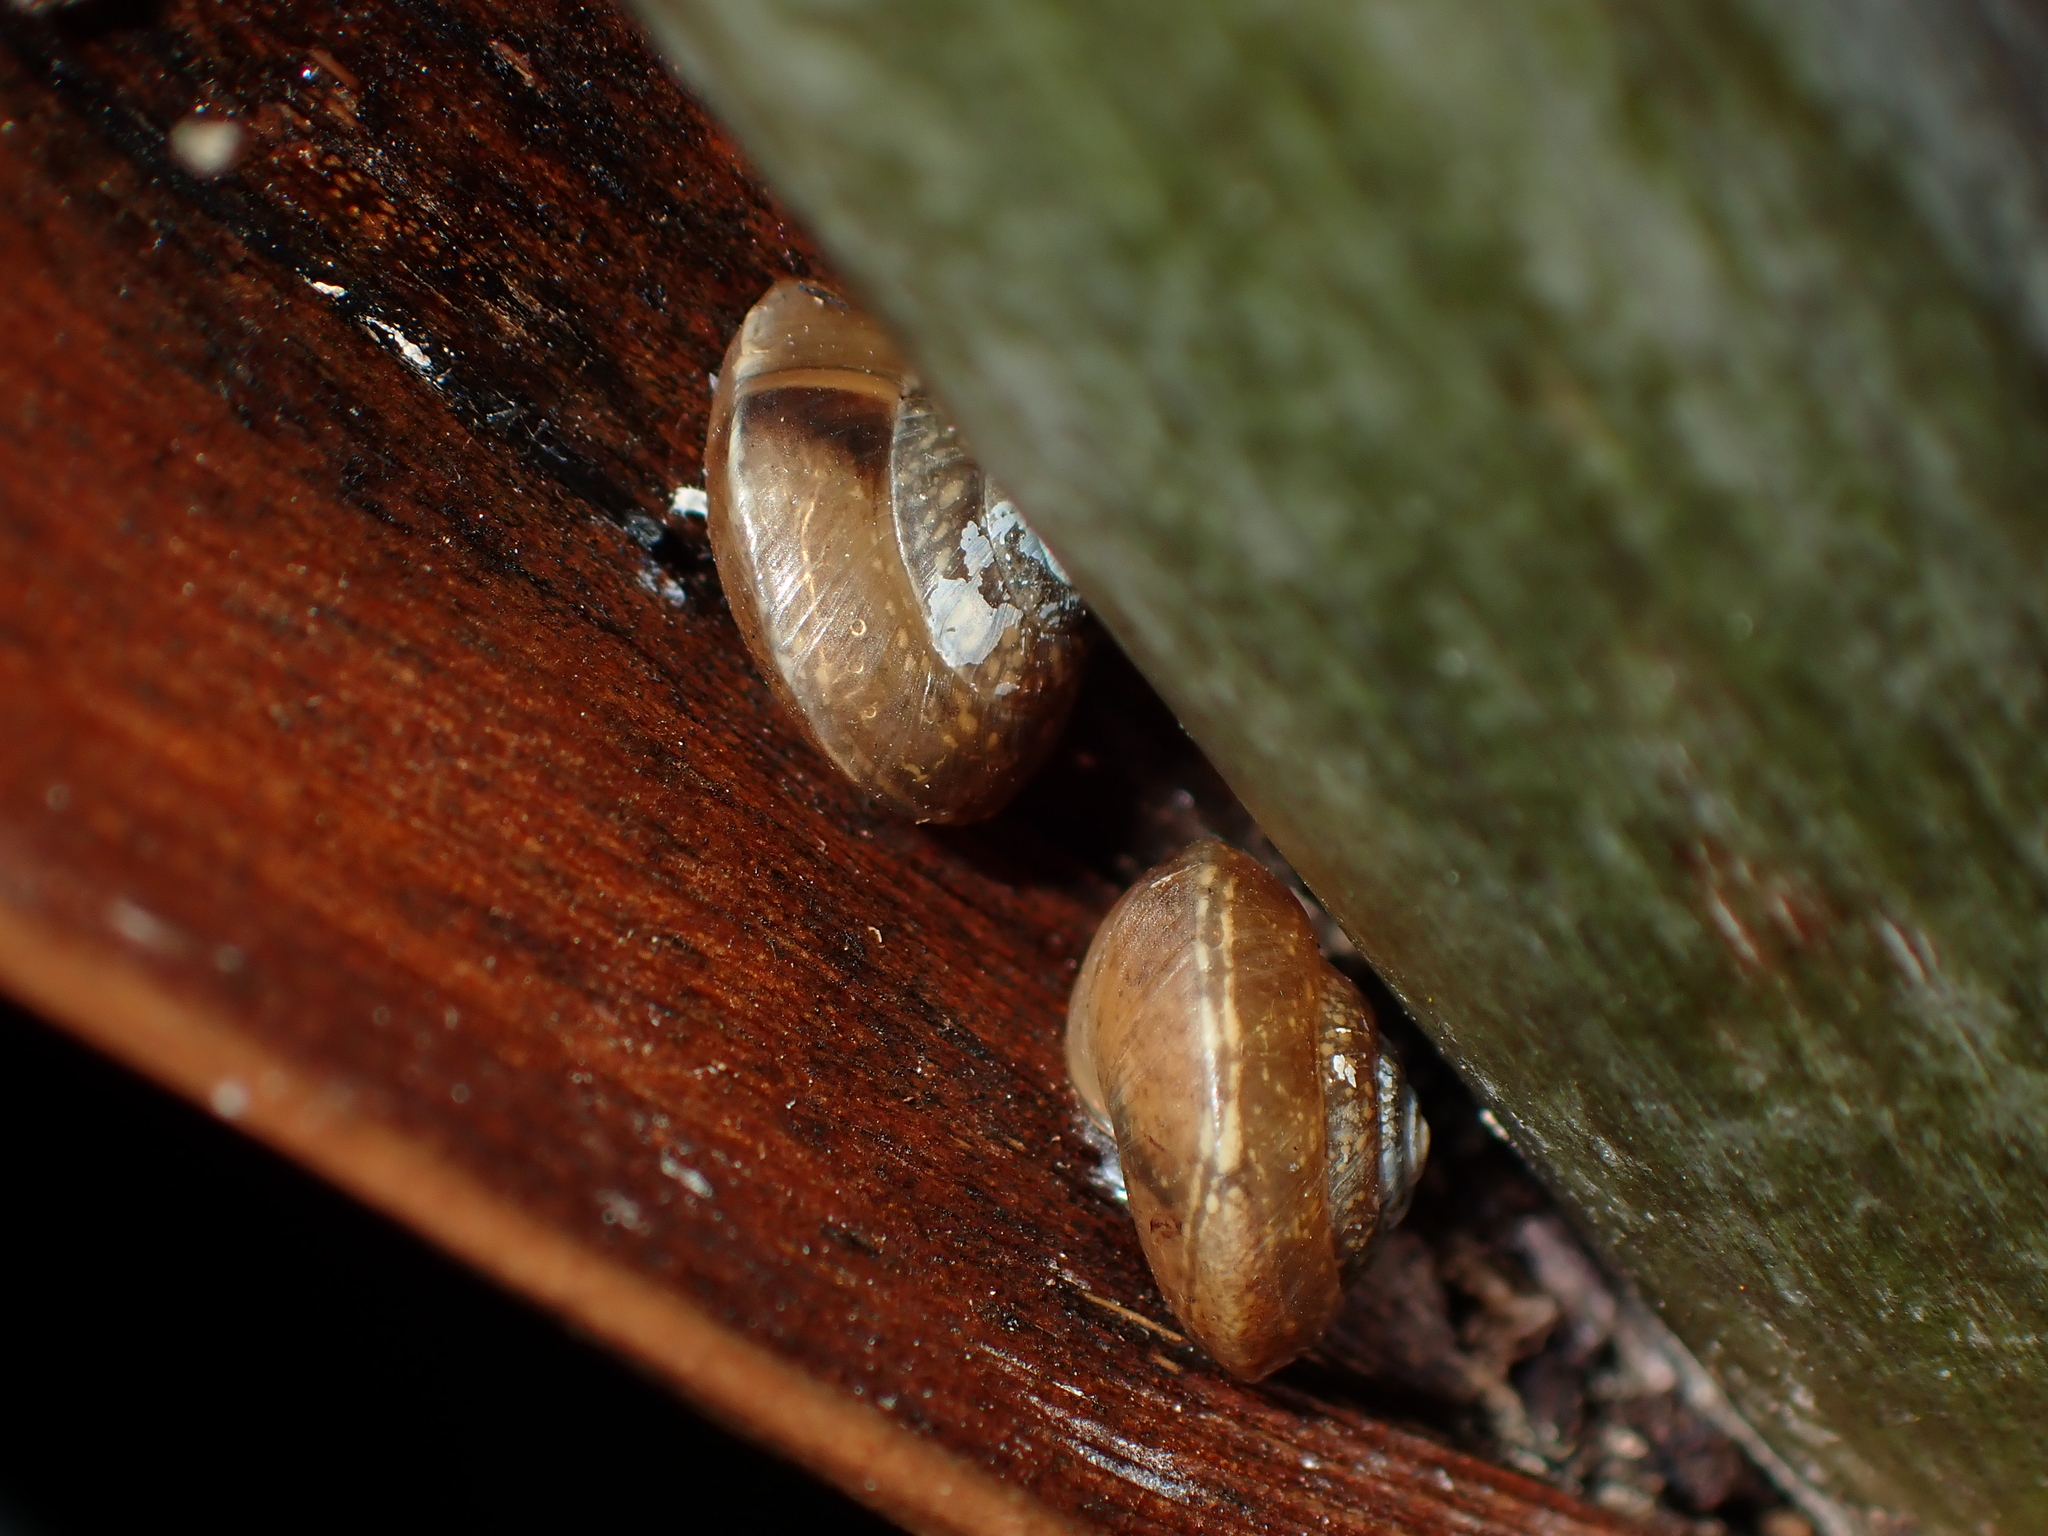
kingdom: Animalia
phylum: Mollusca
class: Gastropoda
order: Stylommatophora
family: Hygromiidae
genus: Hygromia
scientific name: Hygromia cinctella
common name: Girdled snail
